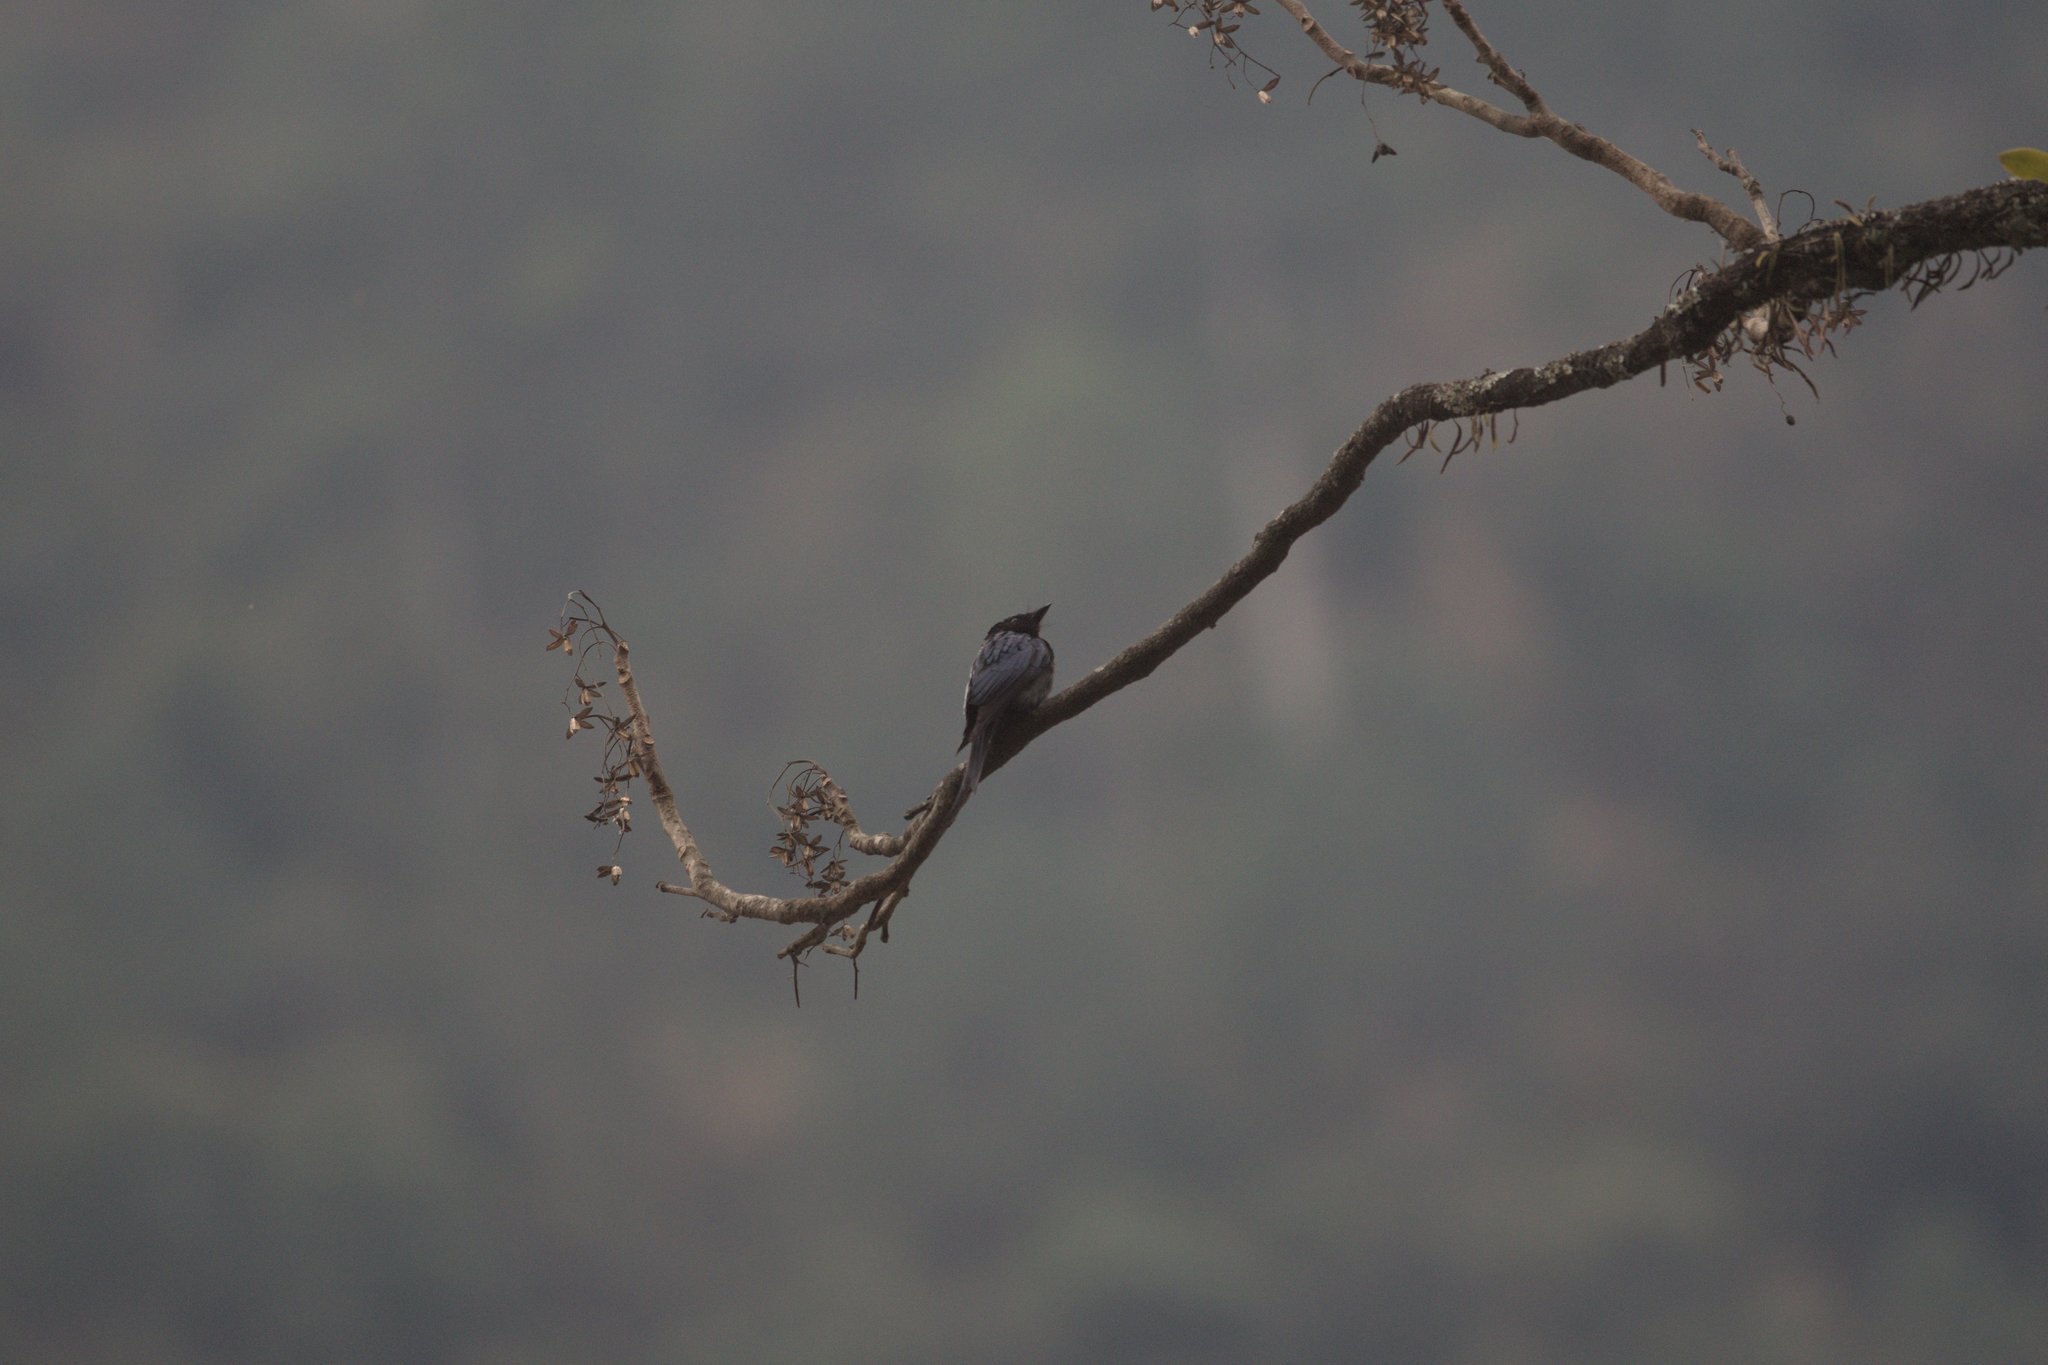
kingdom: Animalia
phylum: Chordata
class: Aves
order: Passeriformes
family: Dicruridae
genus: Dicrurus
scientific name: Dicrurus aeneus
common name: Bronzed drongo
